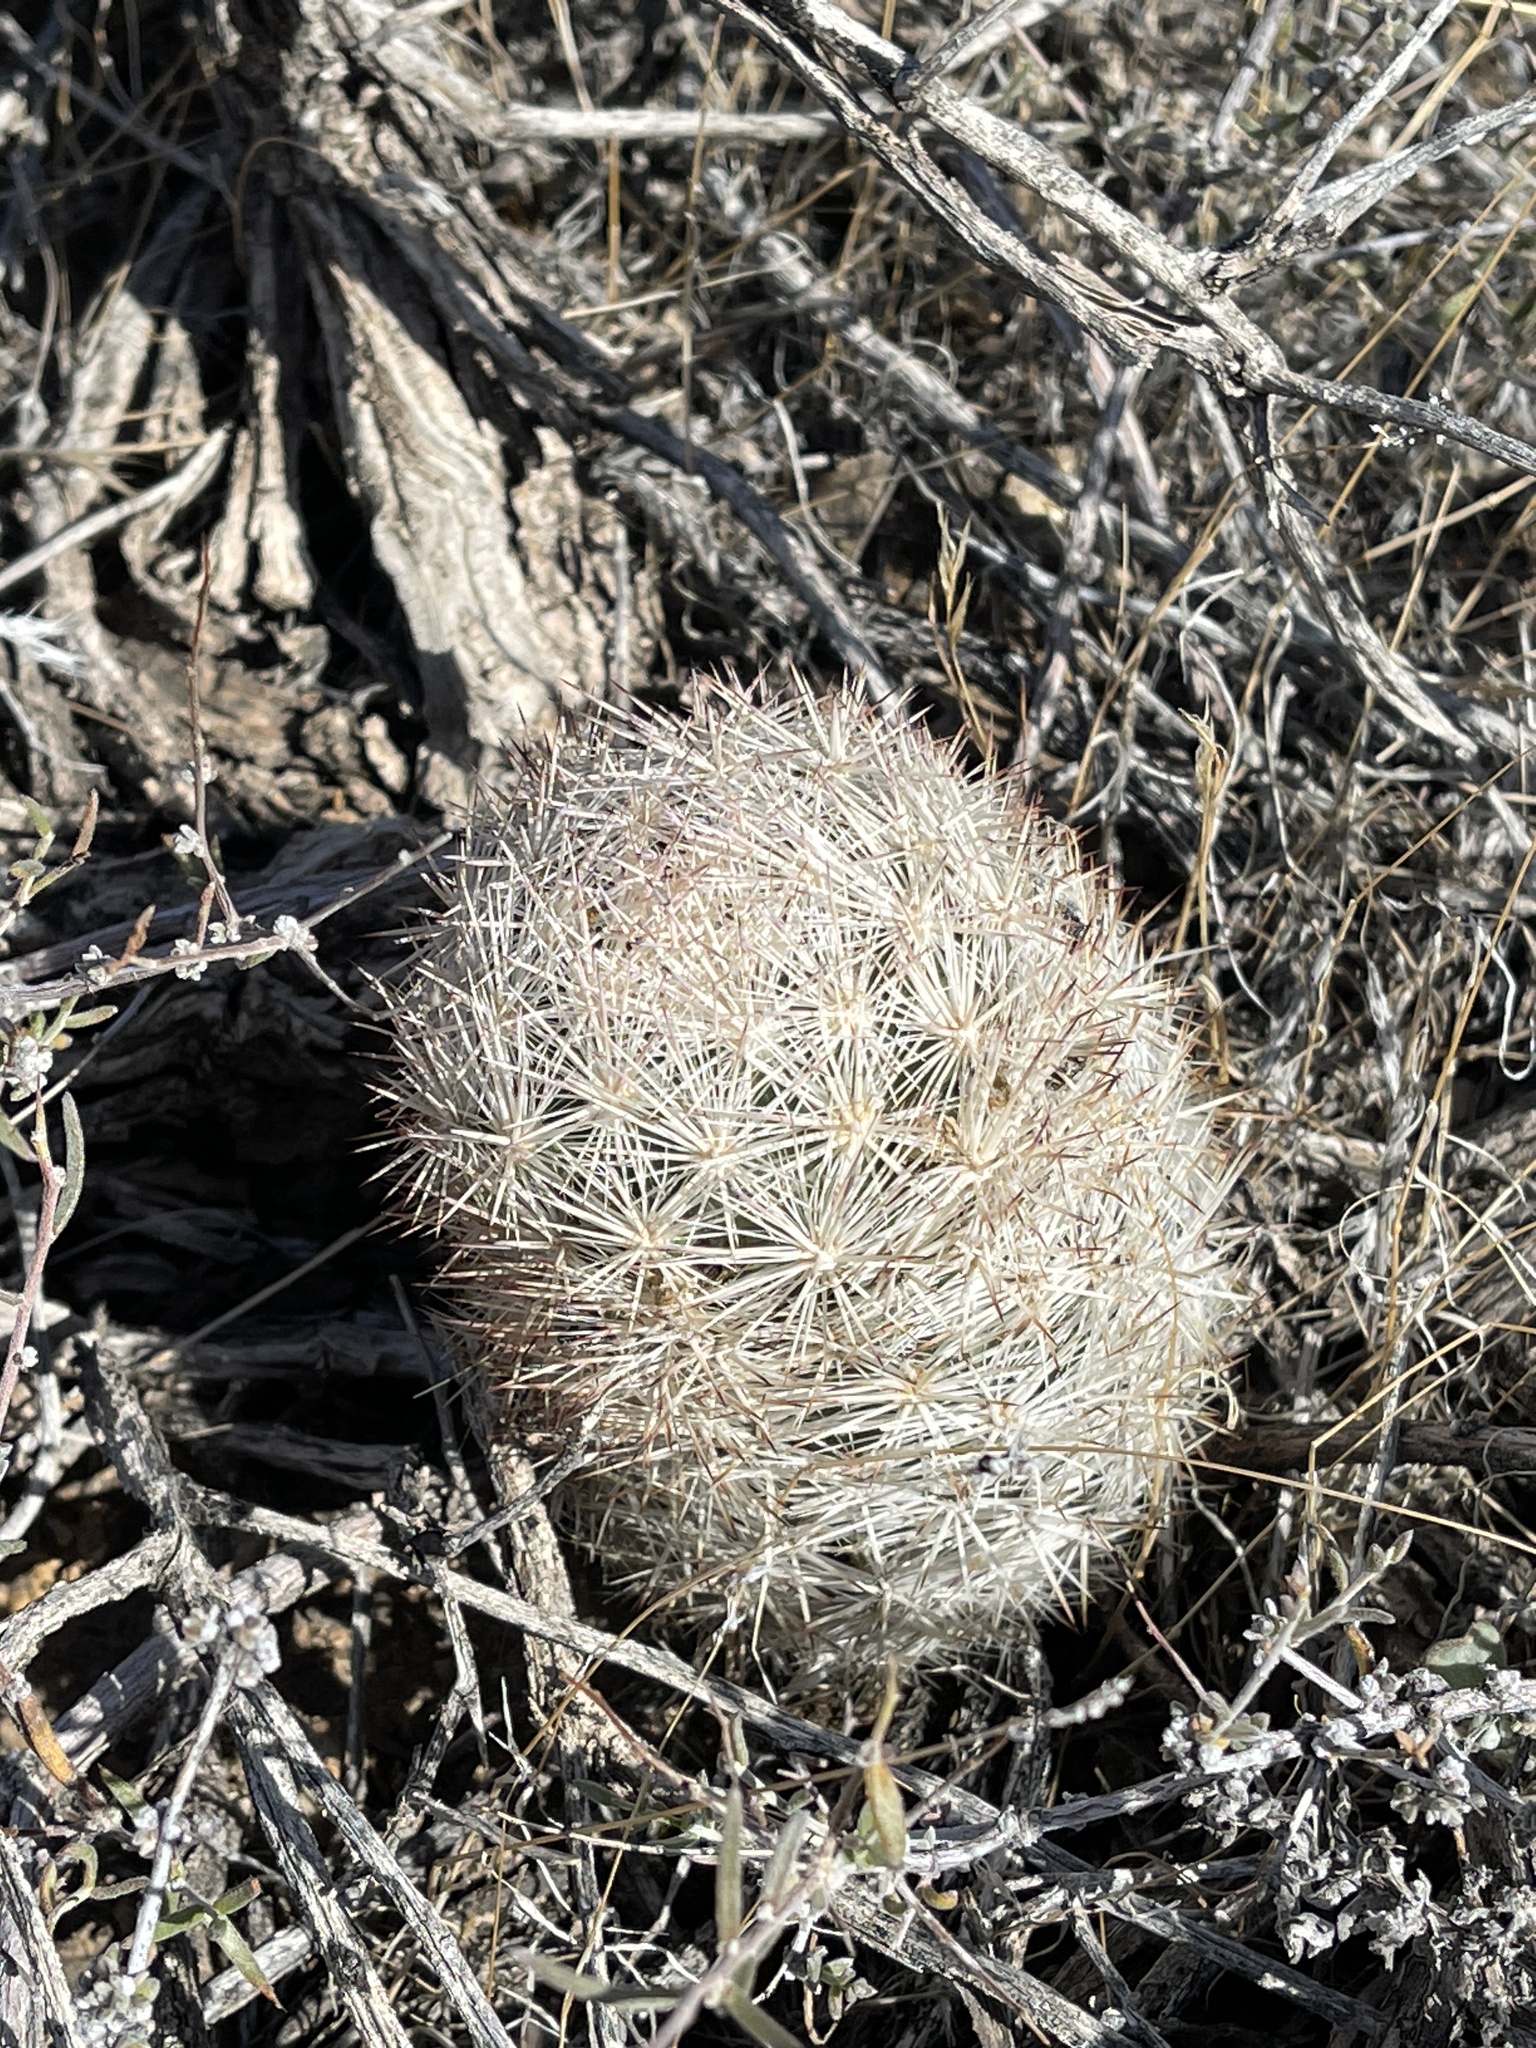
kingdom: Plantae
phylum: Tracheophyta
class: Magnoliopsida
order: Caryophyllales
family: Cactaceae
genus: Pelecyphora
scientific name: Pelecyphora dasyacantha
